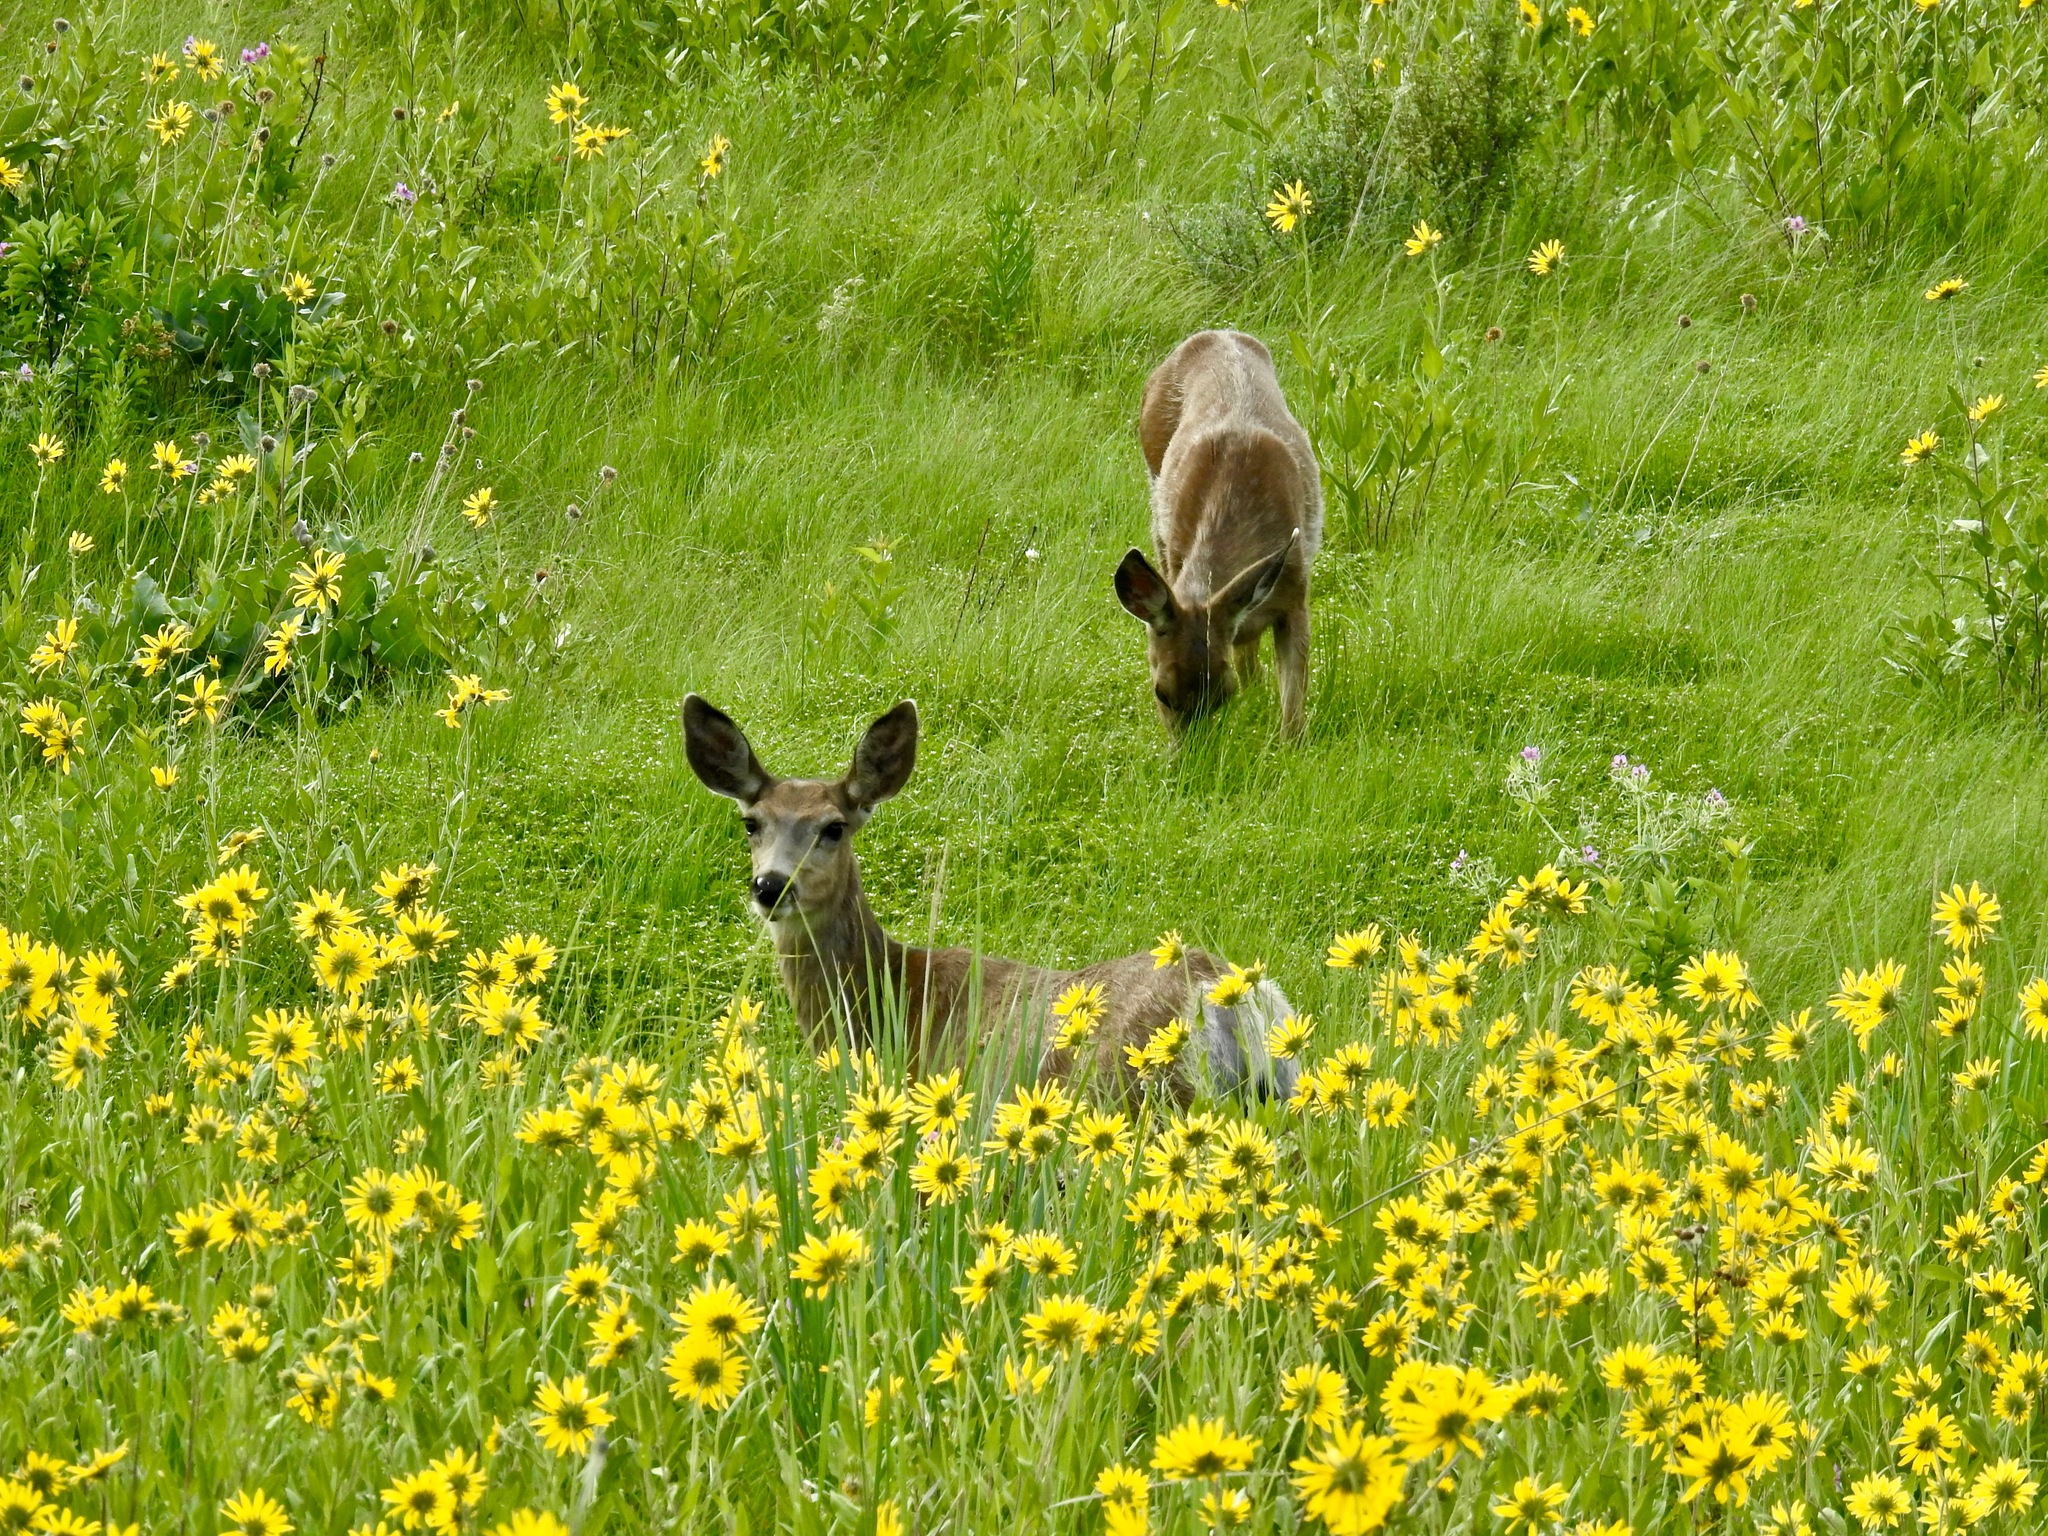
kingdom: Animalia
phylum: Chordata
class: Mammalia
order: Artiodactyla
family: Cervidae
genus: Odocoileus
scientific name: Odocoileus hemionus
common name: Mule deer
